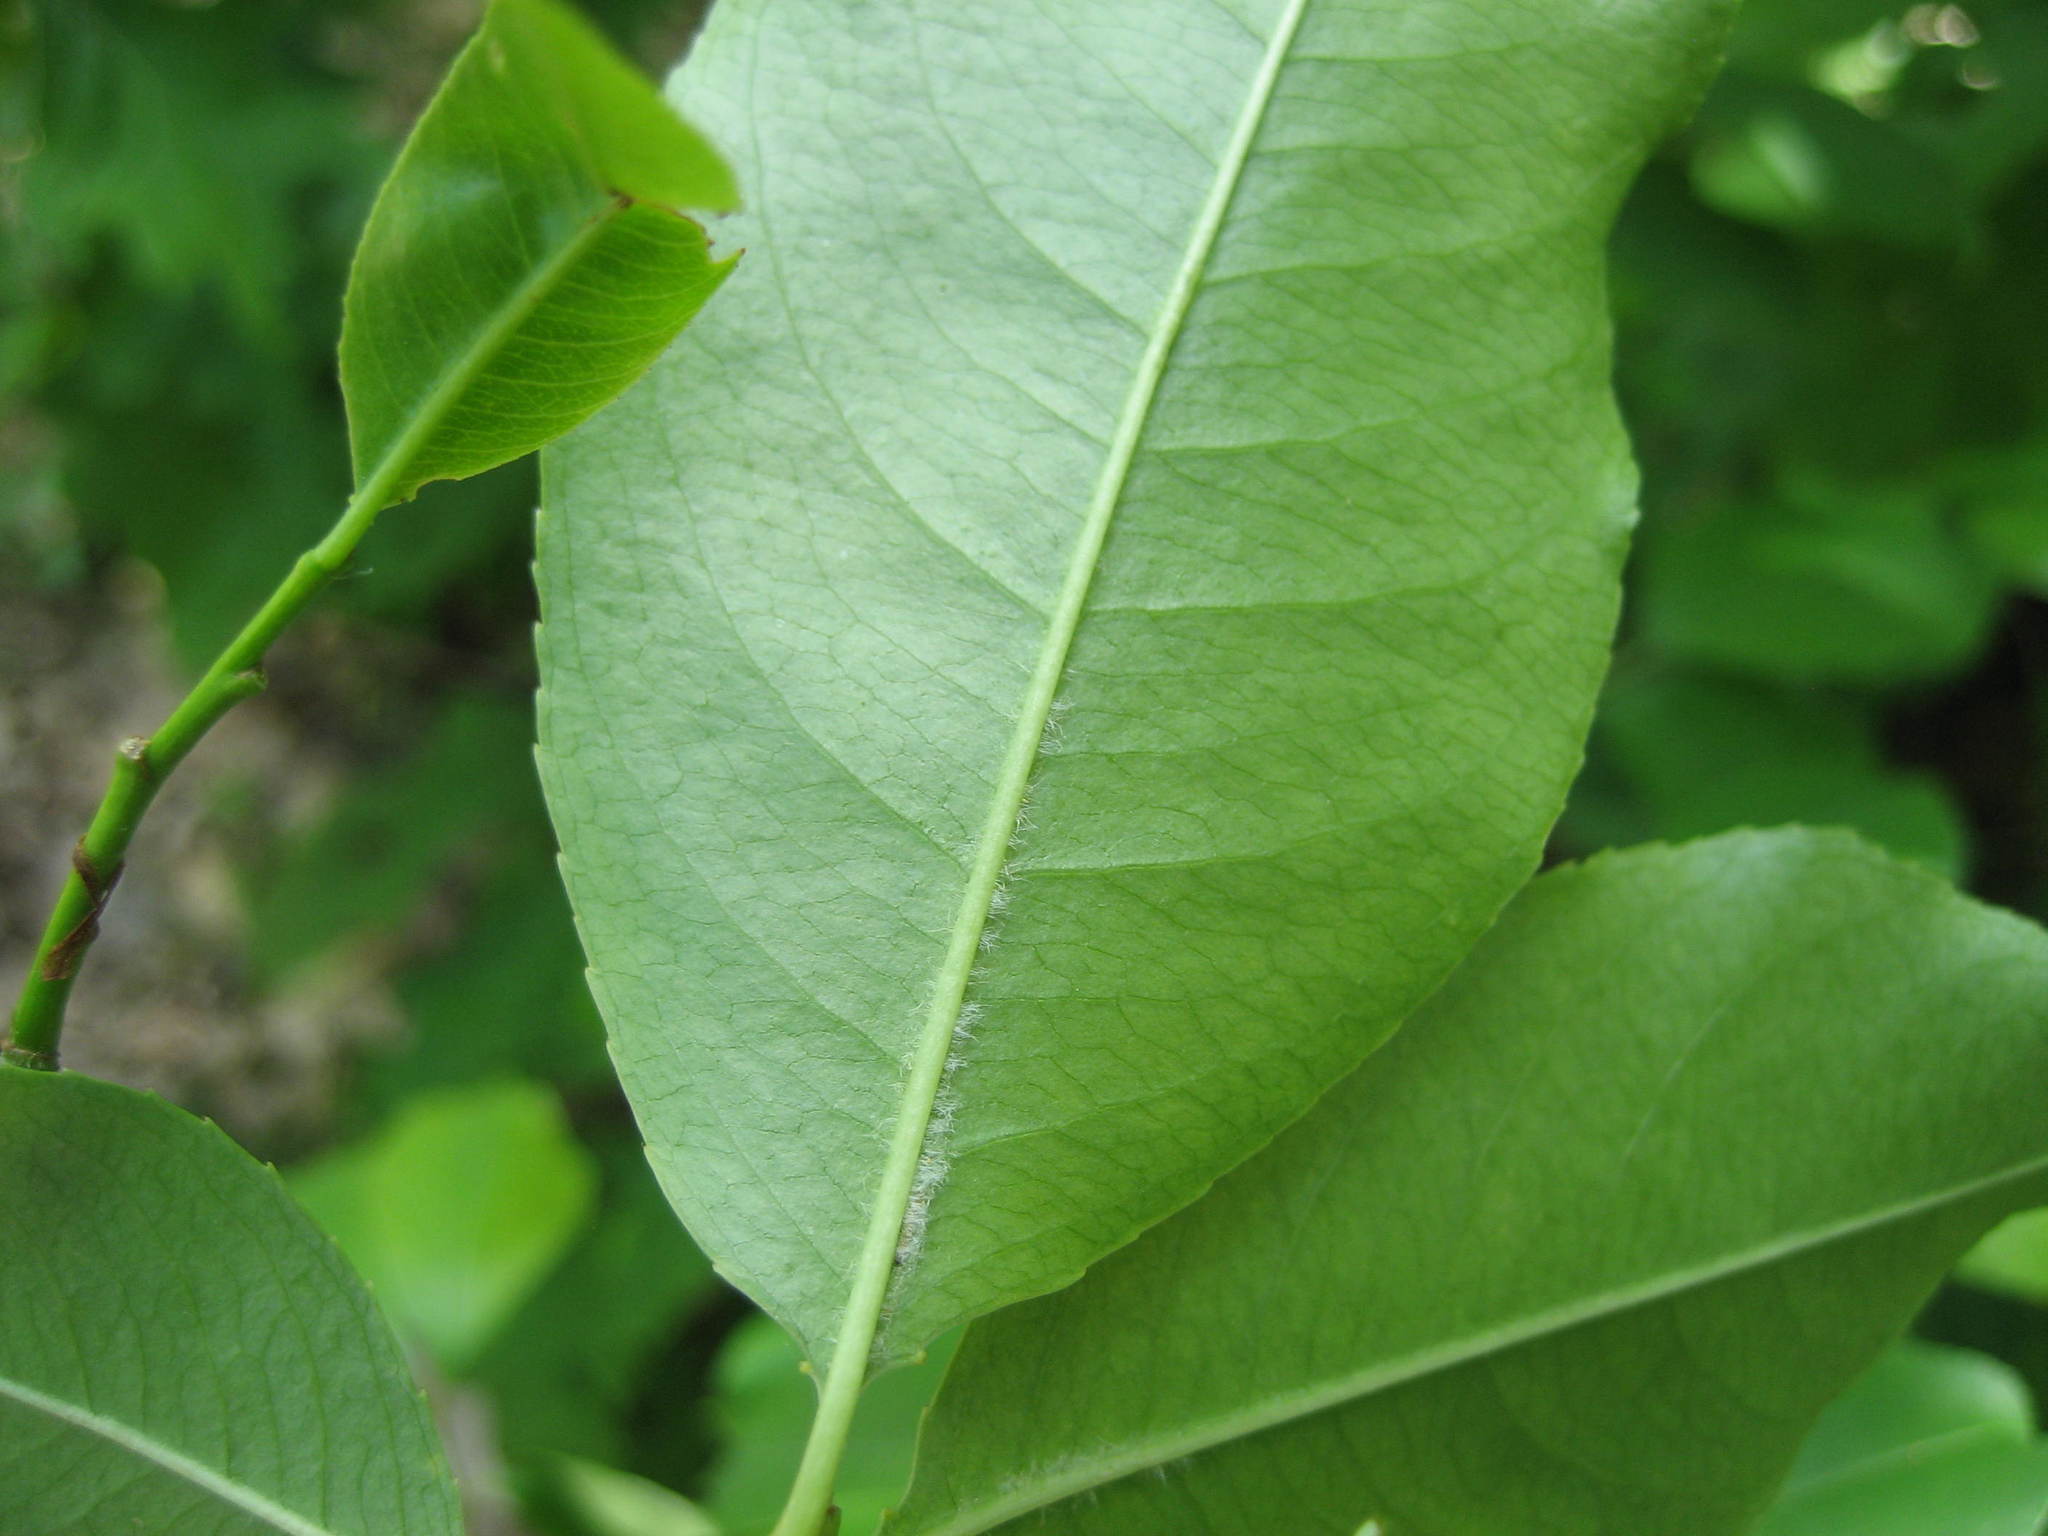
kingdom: Plantae
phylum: Tracheophyta
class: Magnoliopsida
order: Rosales
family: Rosaceae
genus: Prunus
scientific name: Prunus serotina
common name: Black cherry
